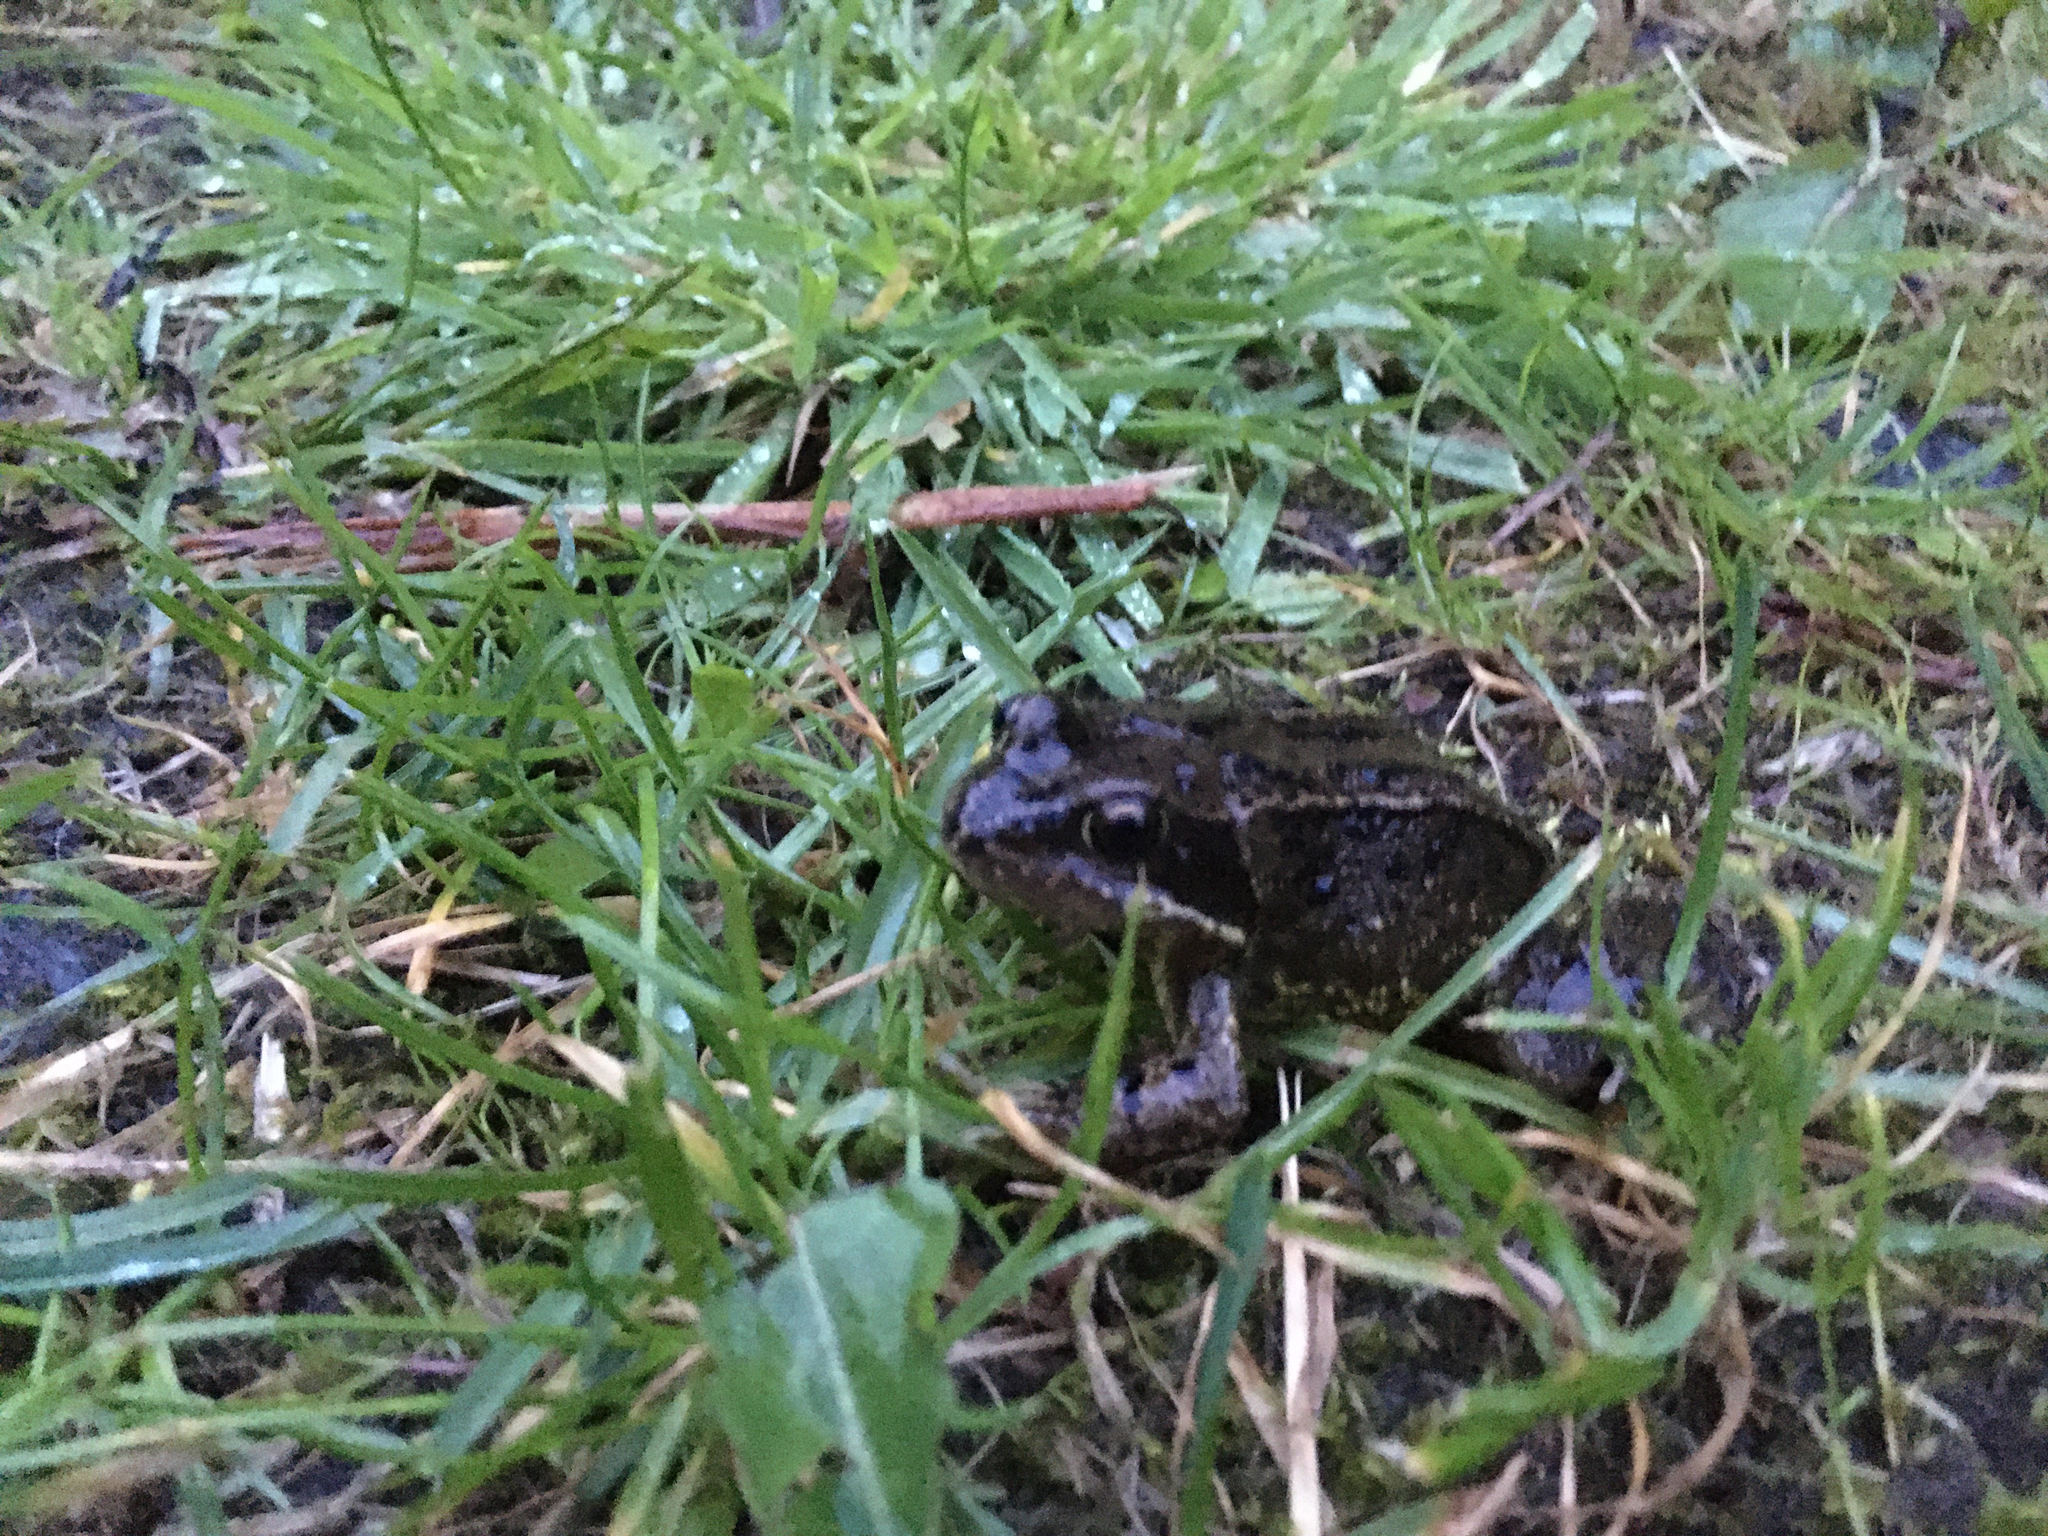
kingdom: Animalia
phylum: Chordata
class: Amphibia
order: Anura
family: Ranidae
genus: Rana
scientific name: Rana temporaria
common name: Common frog
